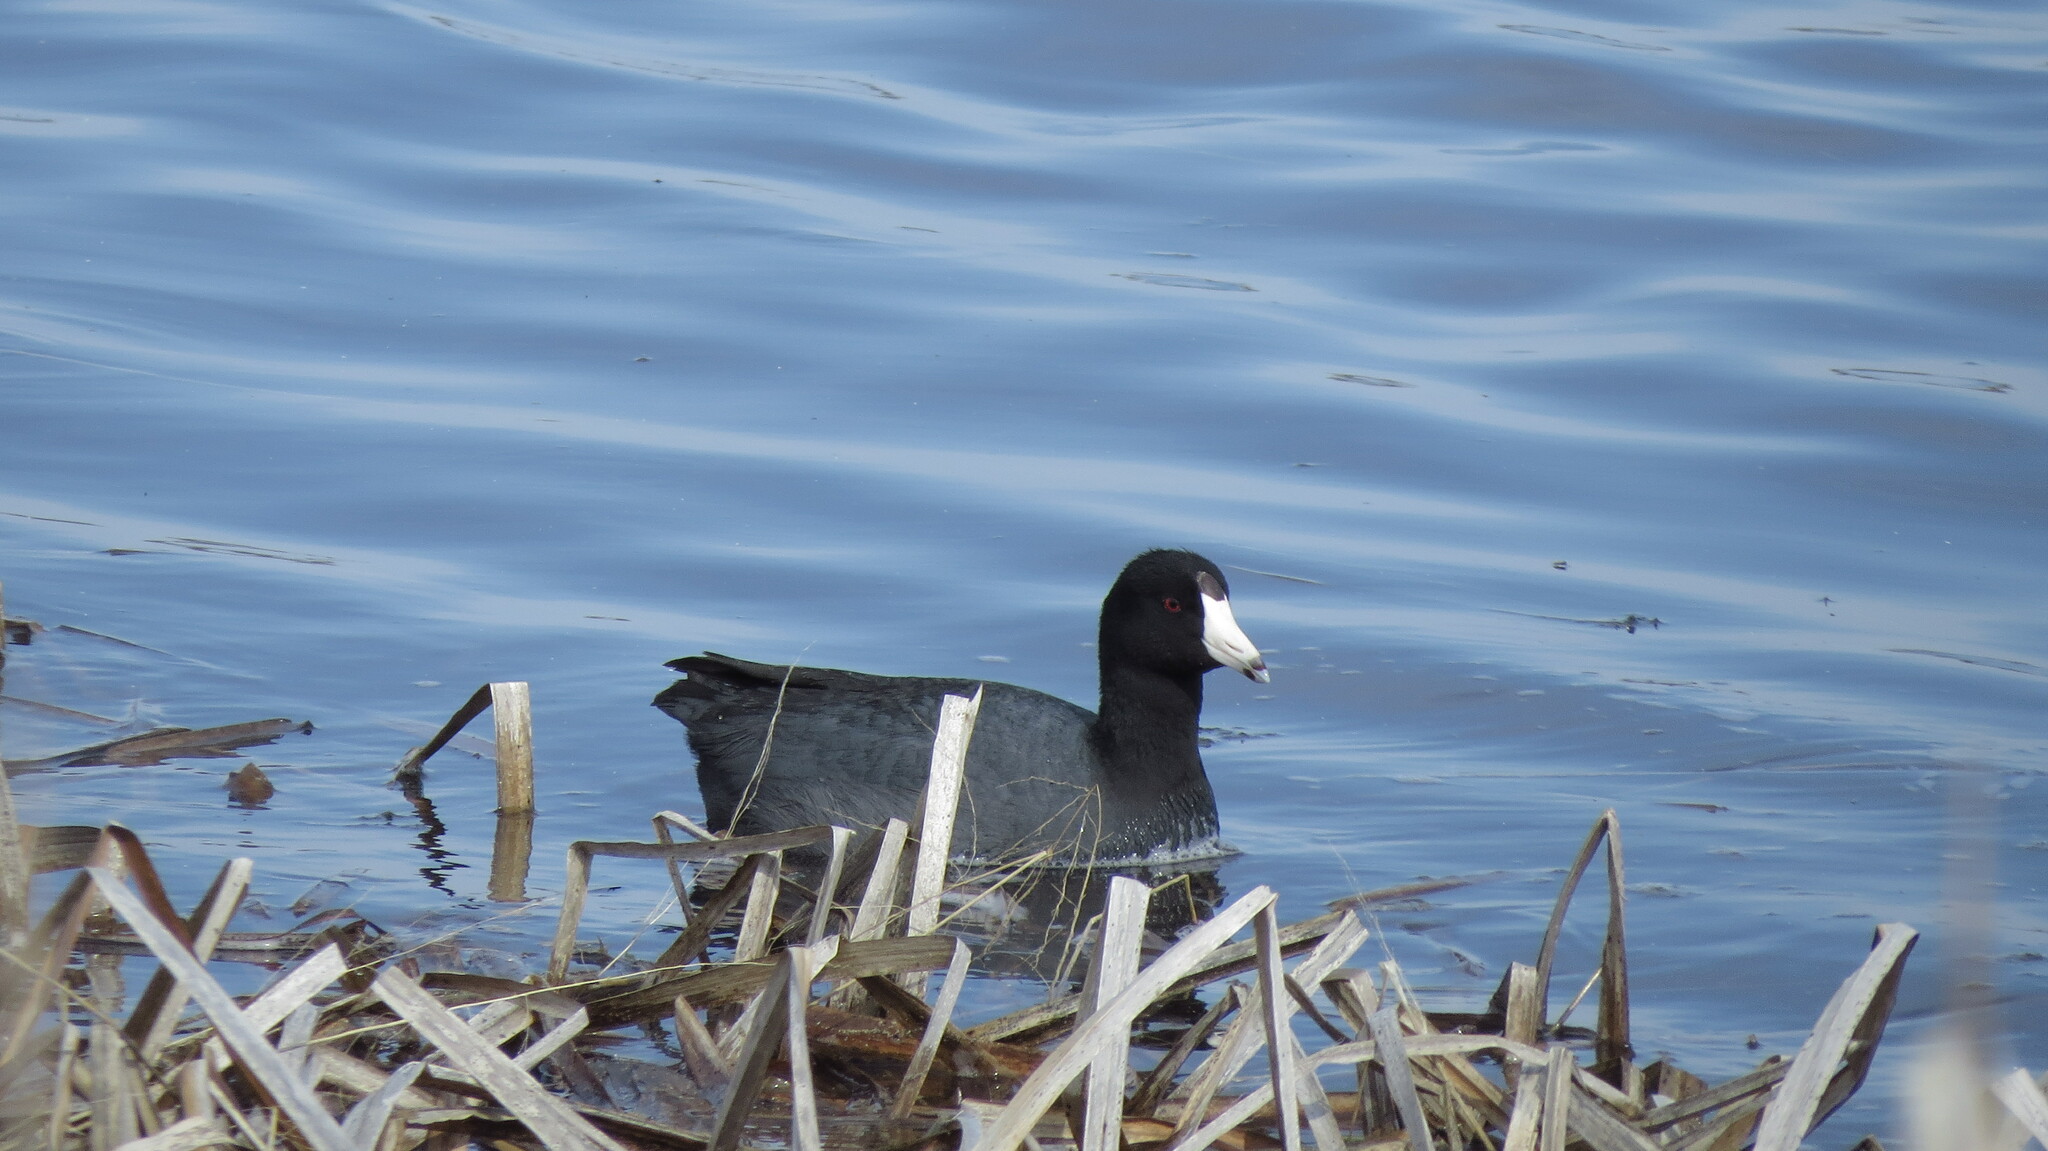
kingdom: Animalia
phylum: Chordata
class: Aves
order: Gruiformes
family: Rallidae
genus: Fulica
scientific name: Fulica americana
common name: American coot
